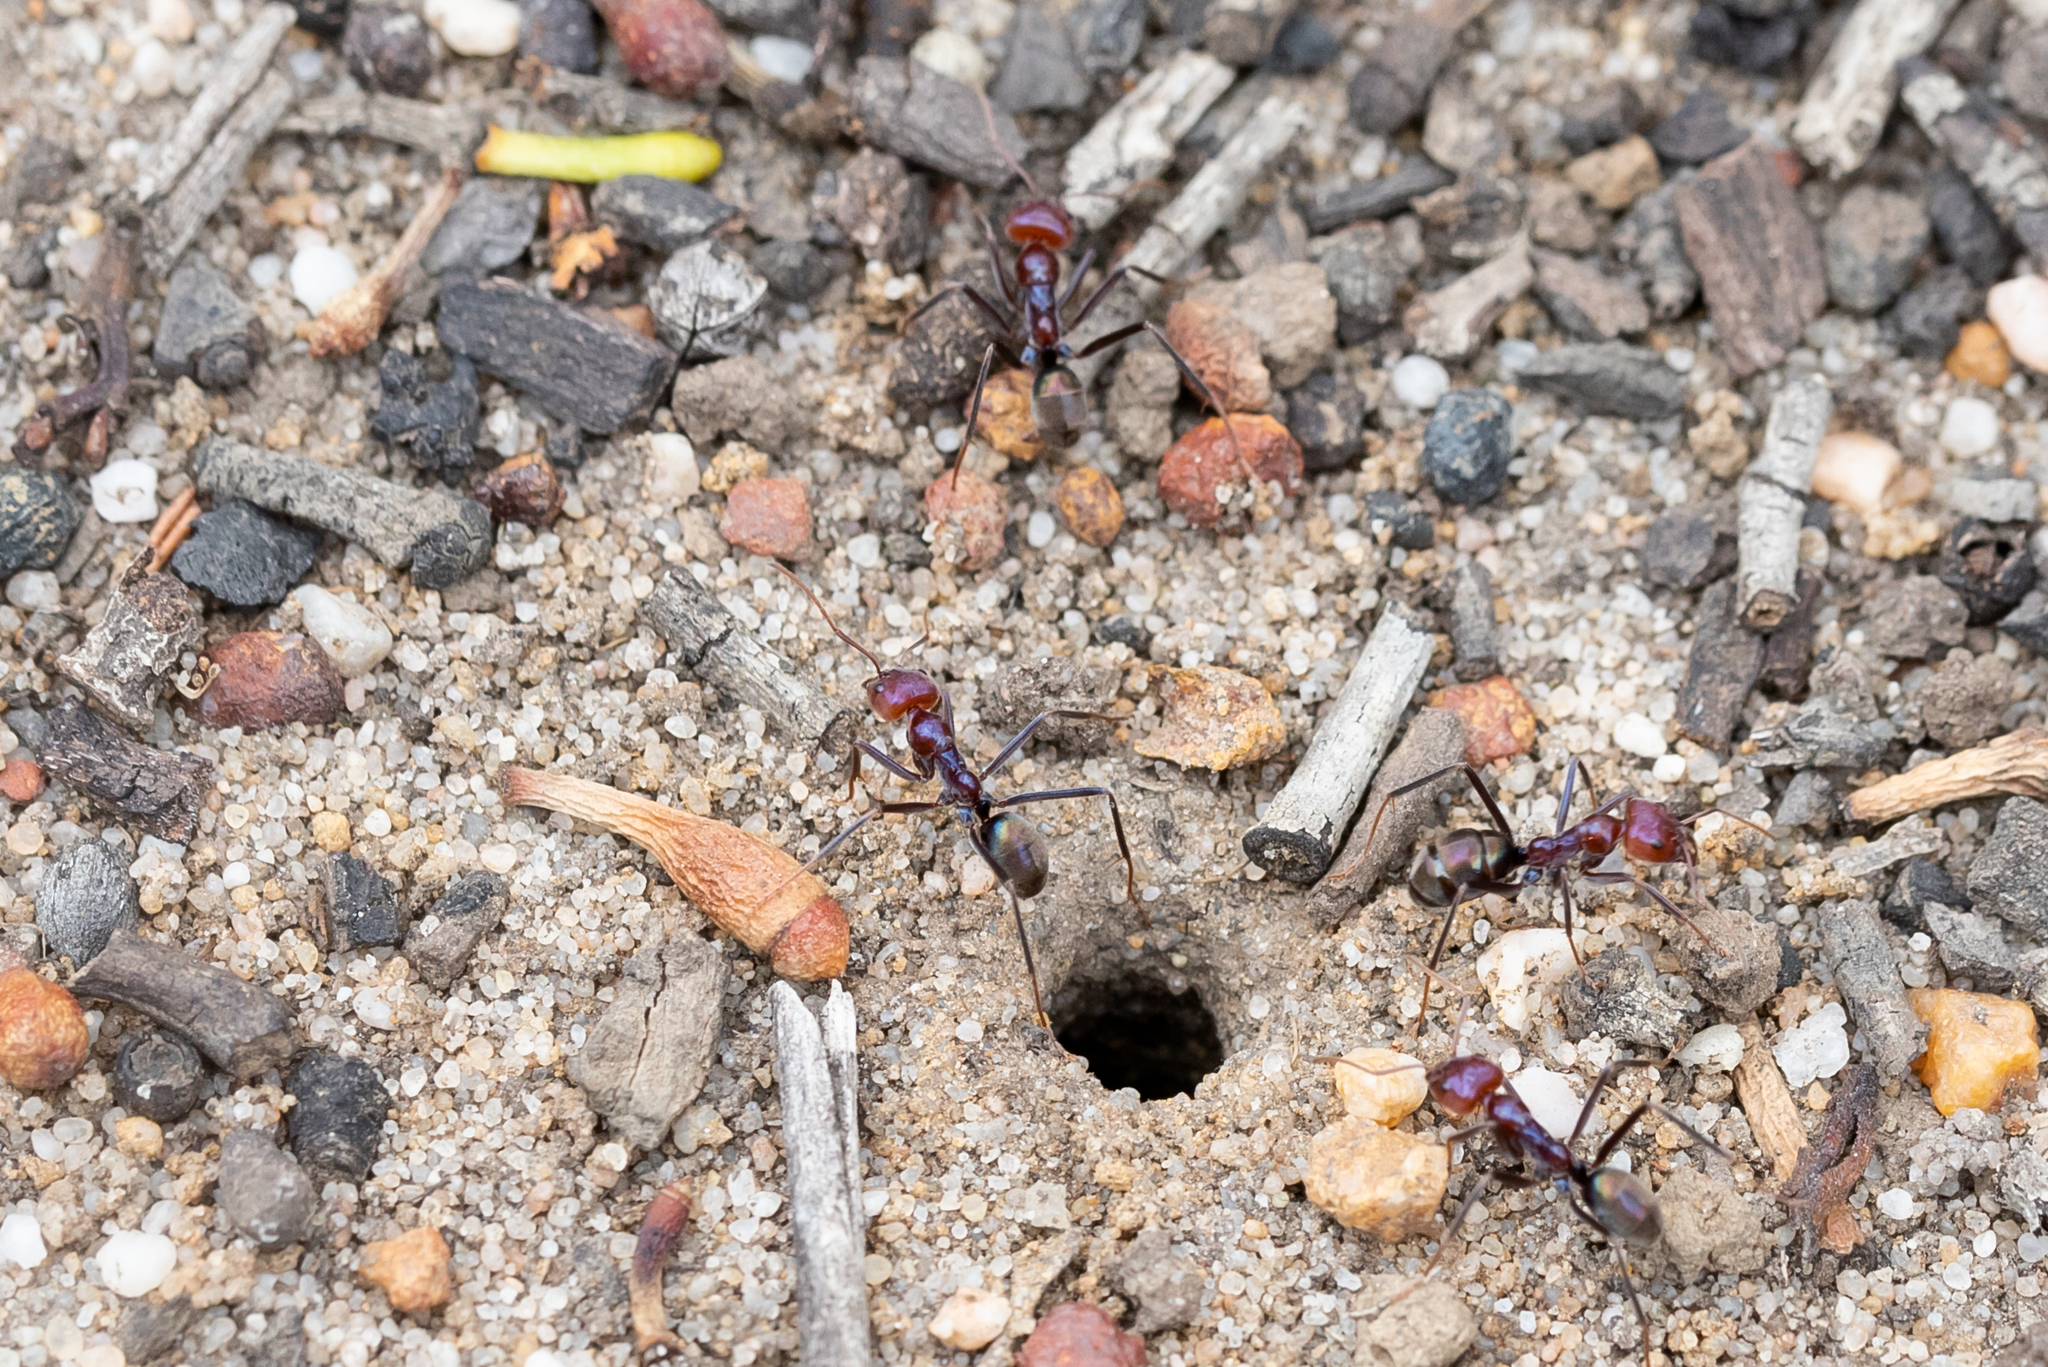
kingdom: Animalia
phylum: Arthropoda
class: Insecta
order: Hymenoptera
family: Formicidae
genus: Iridomyrmex
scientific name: Iridomyrmex purpureus
